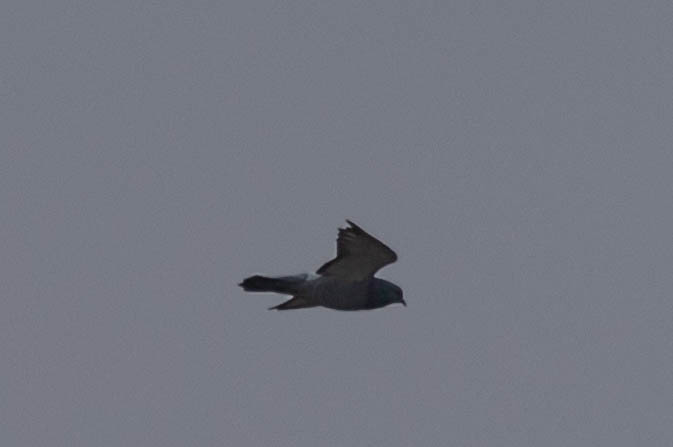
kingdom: Animalia
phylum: Chordata
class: Aves
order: Columbiformes
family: Columbidae
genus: Columba
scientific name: Columba livia
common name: Rock pigeon
